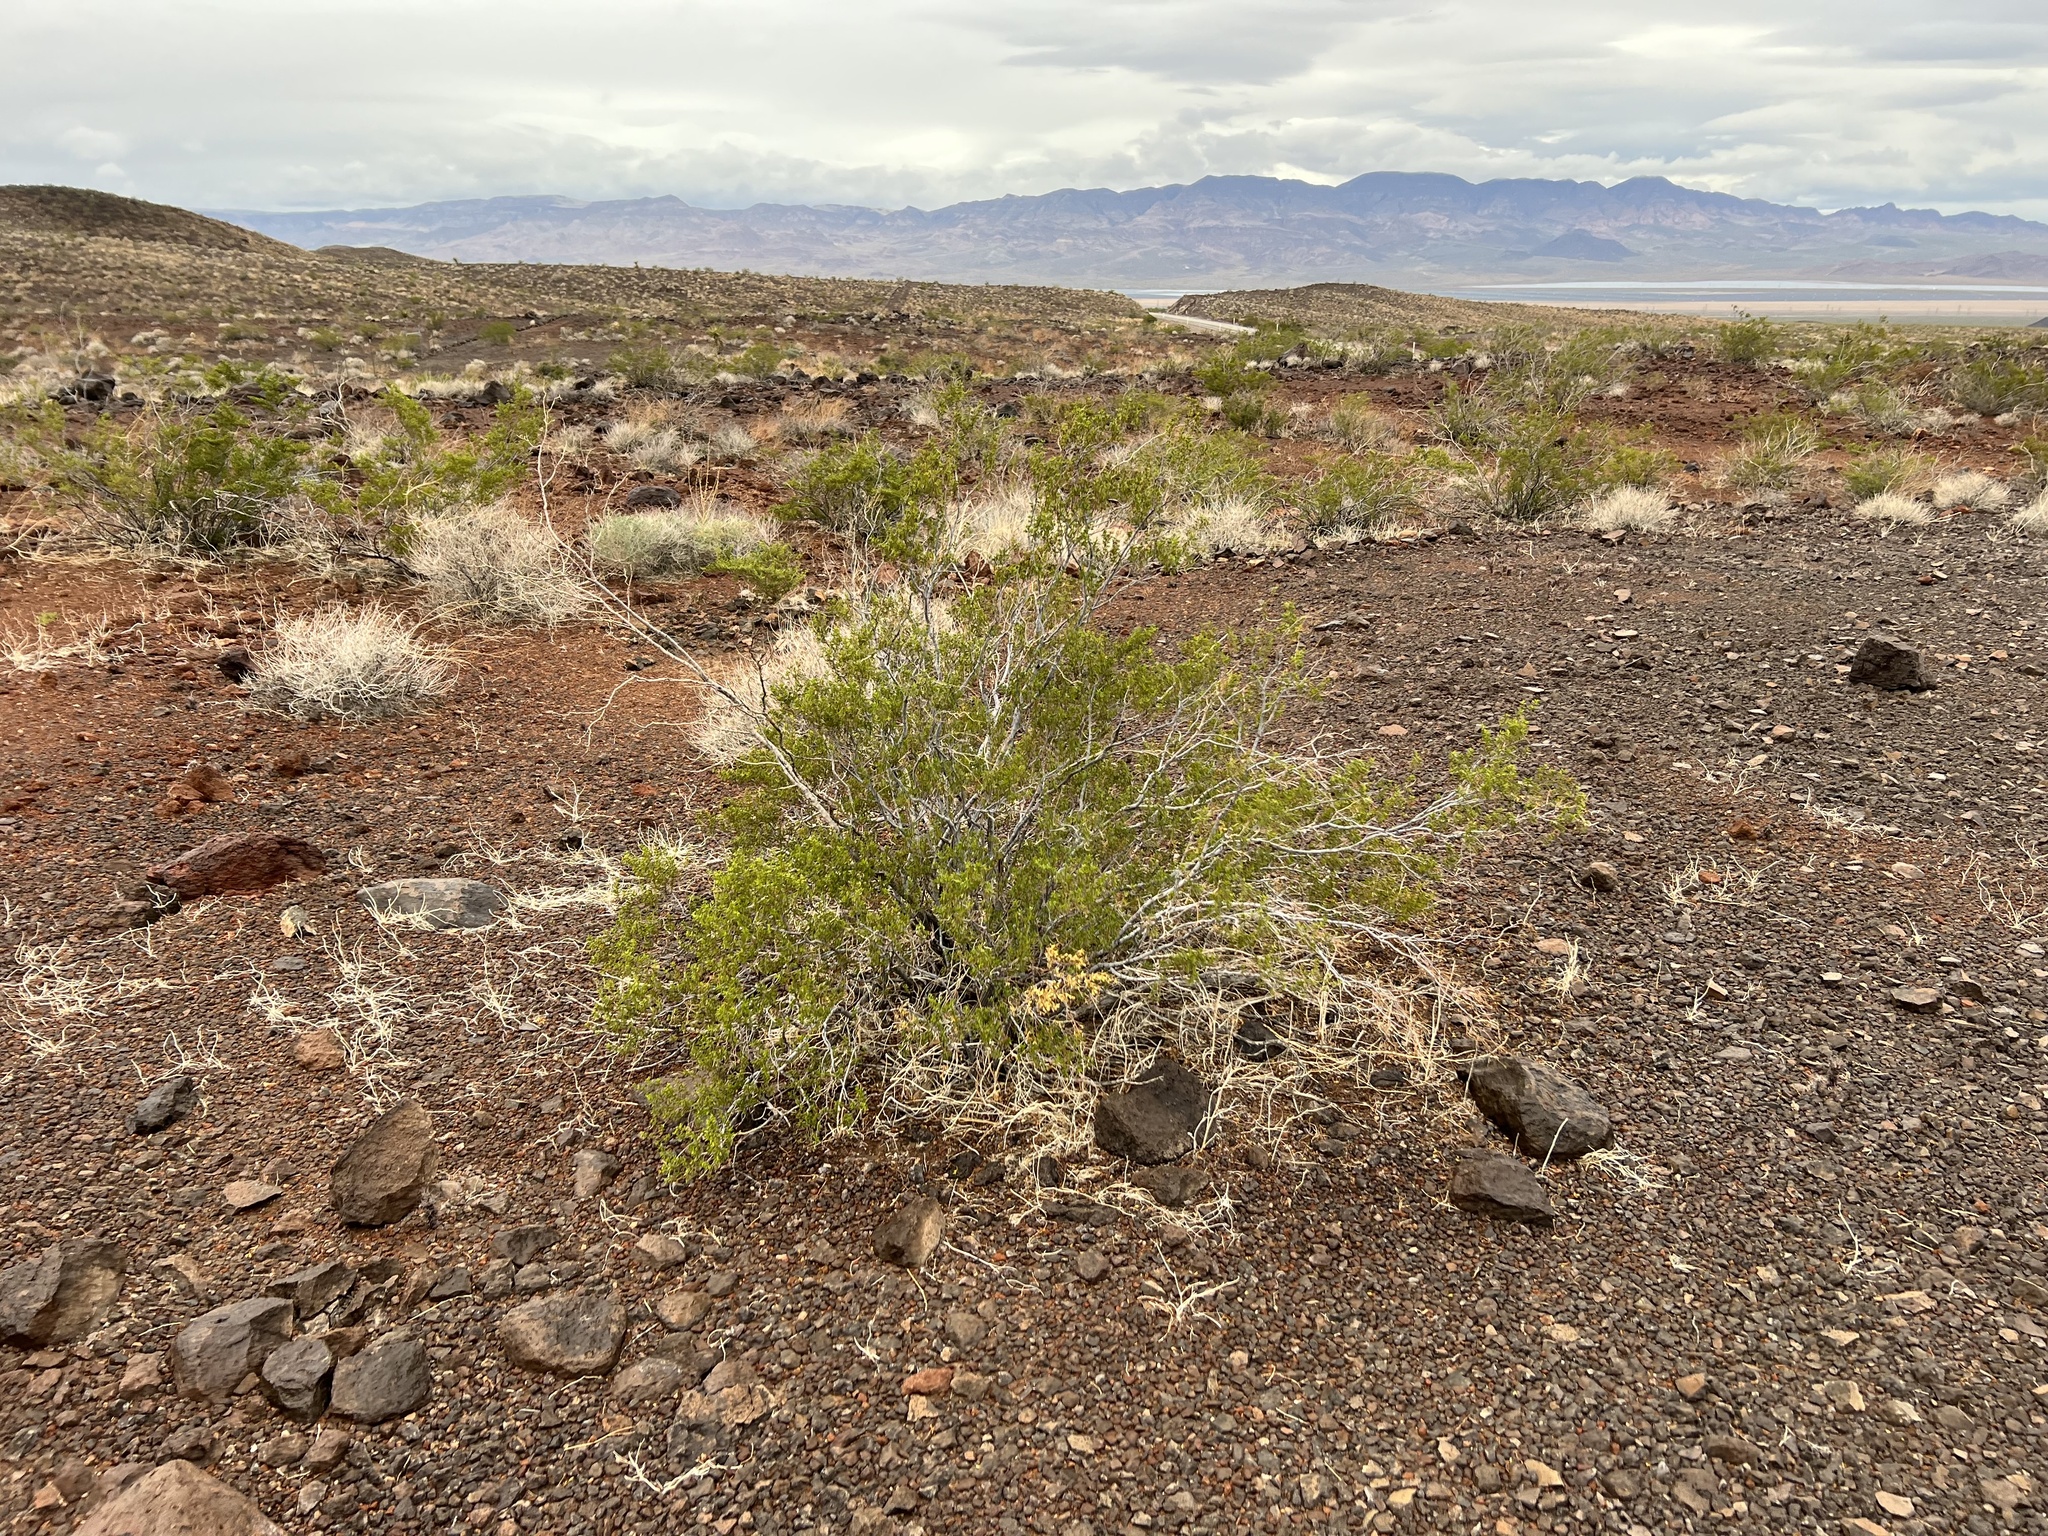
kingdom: Plantae
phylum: Tracheophyta
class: Magnoliopsida
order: Zygophyllales
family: Zygophyllaceae
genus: Larrea
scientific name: Larrea tridentata
